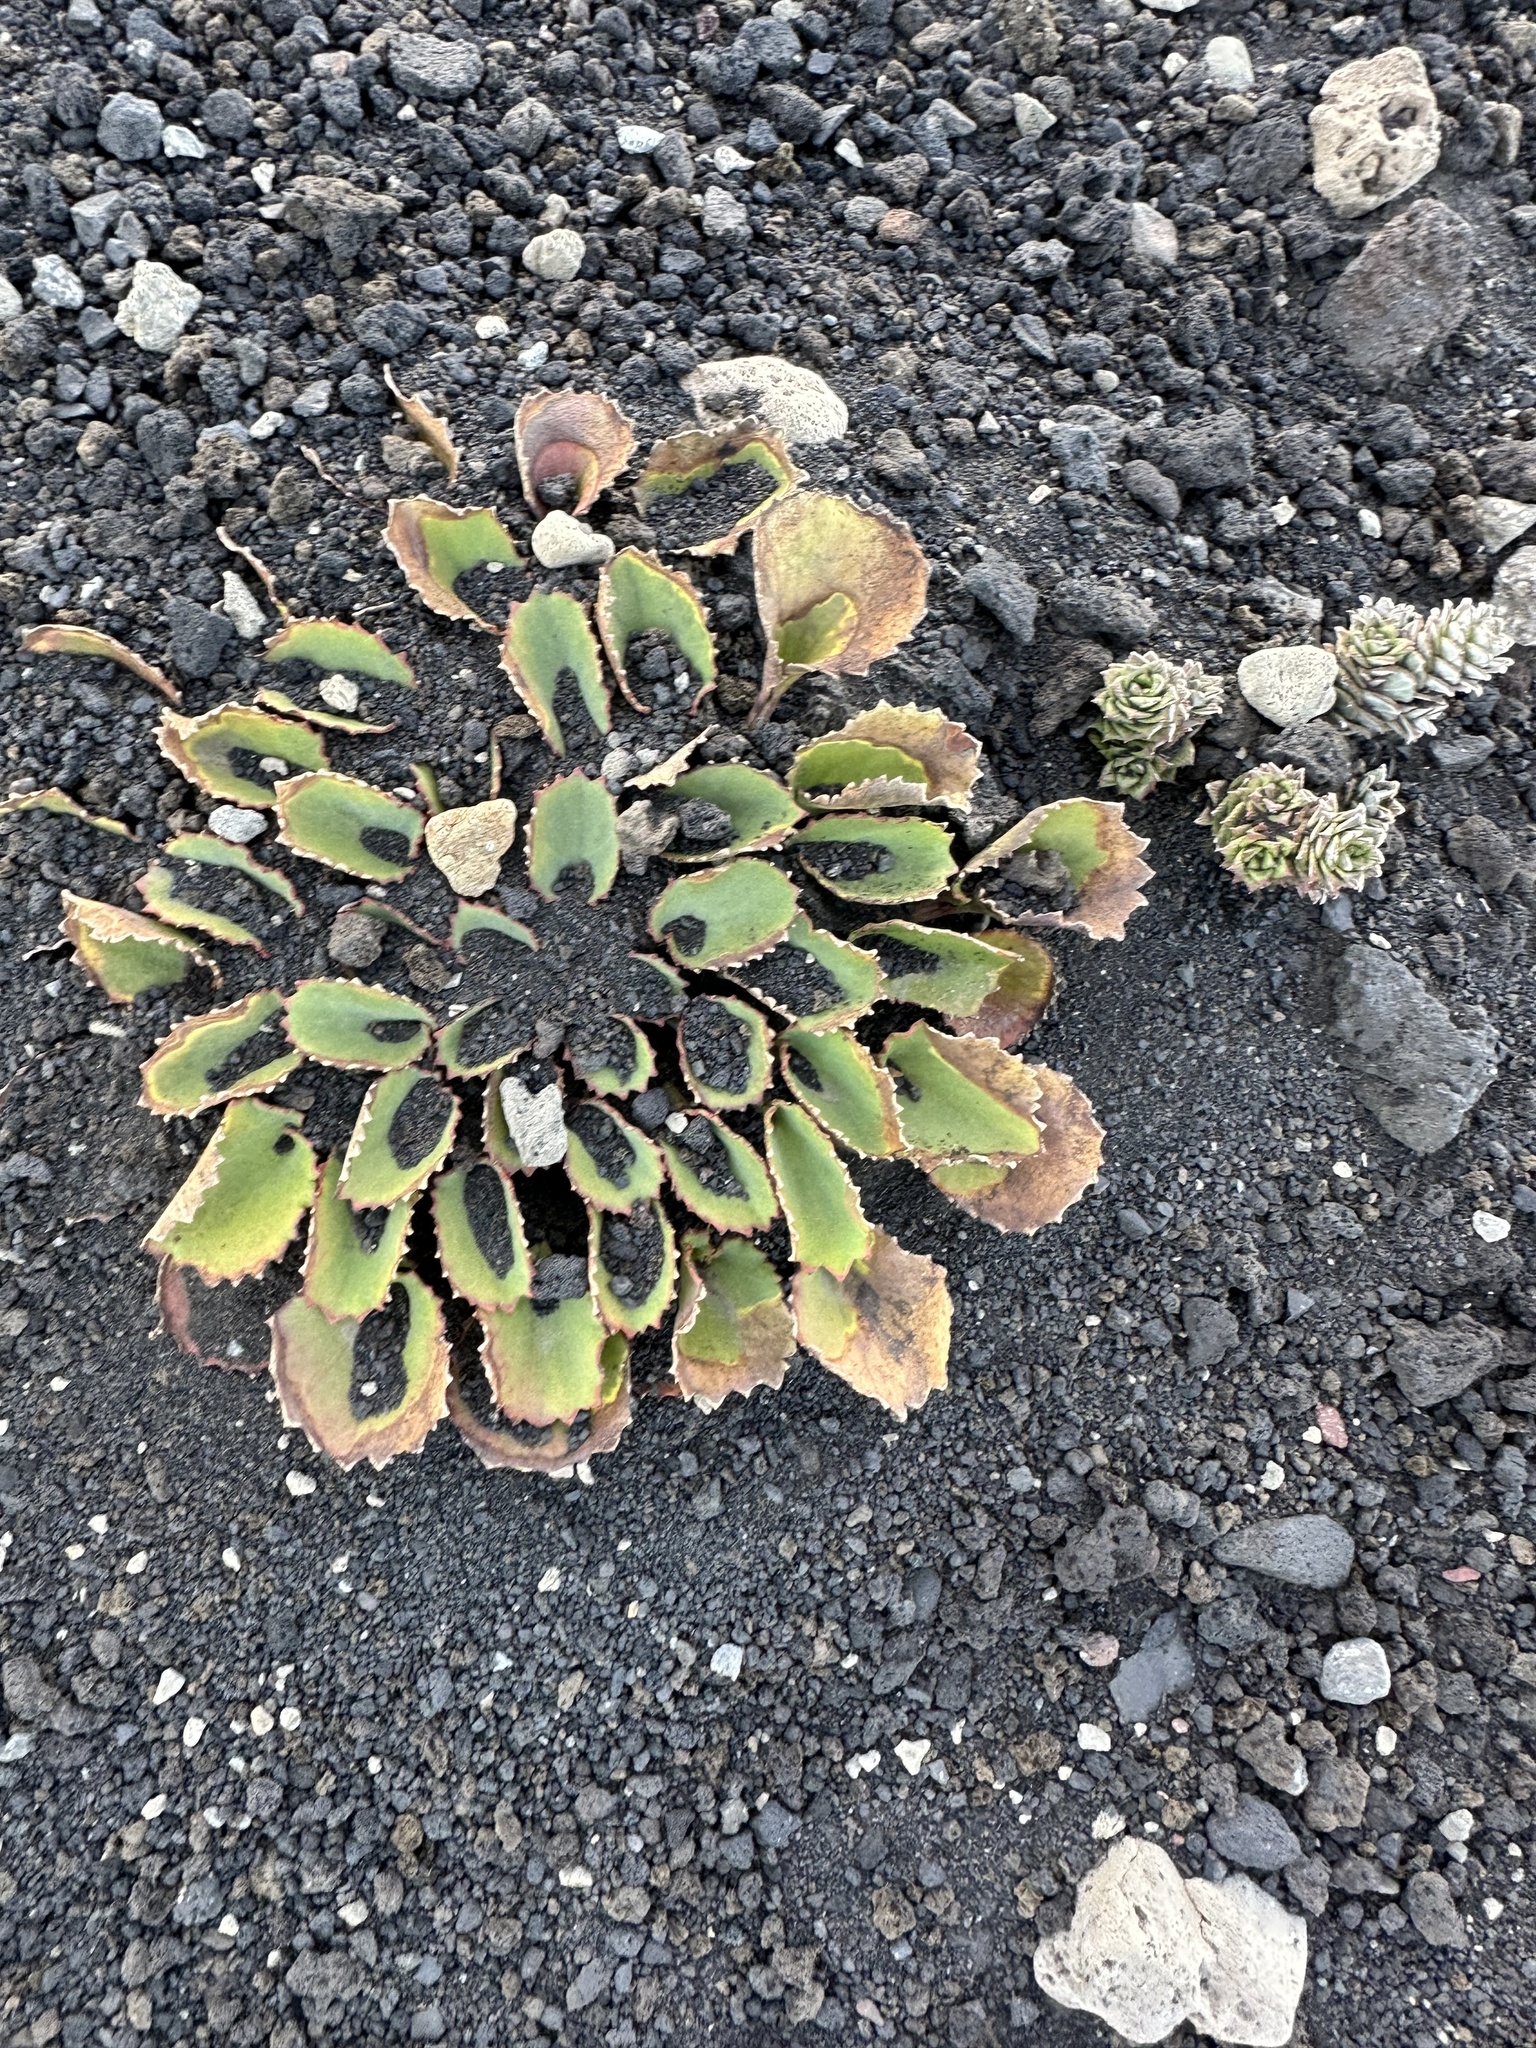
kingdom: Plantae
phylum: Tracheophyta
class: Magnoliopsida
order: Apiales
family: Apiaceae
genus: Pozoa
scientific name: Pozoa volcanica
